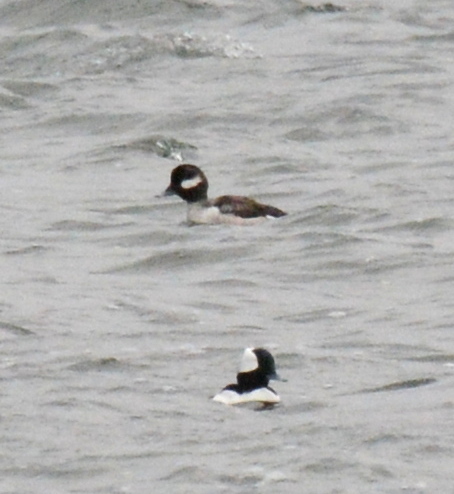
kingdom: Animalia
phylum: Chordata
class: Aves
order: Anseriformes
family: Anatidae
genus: Bucephala
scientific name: Bucephala albeola
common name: Bufflehead
